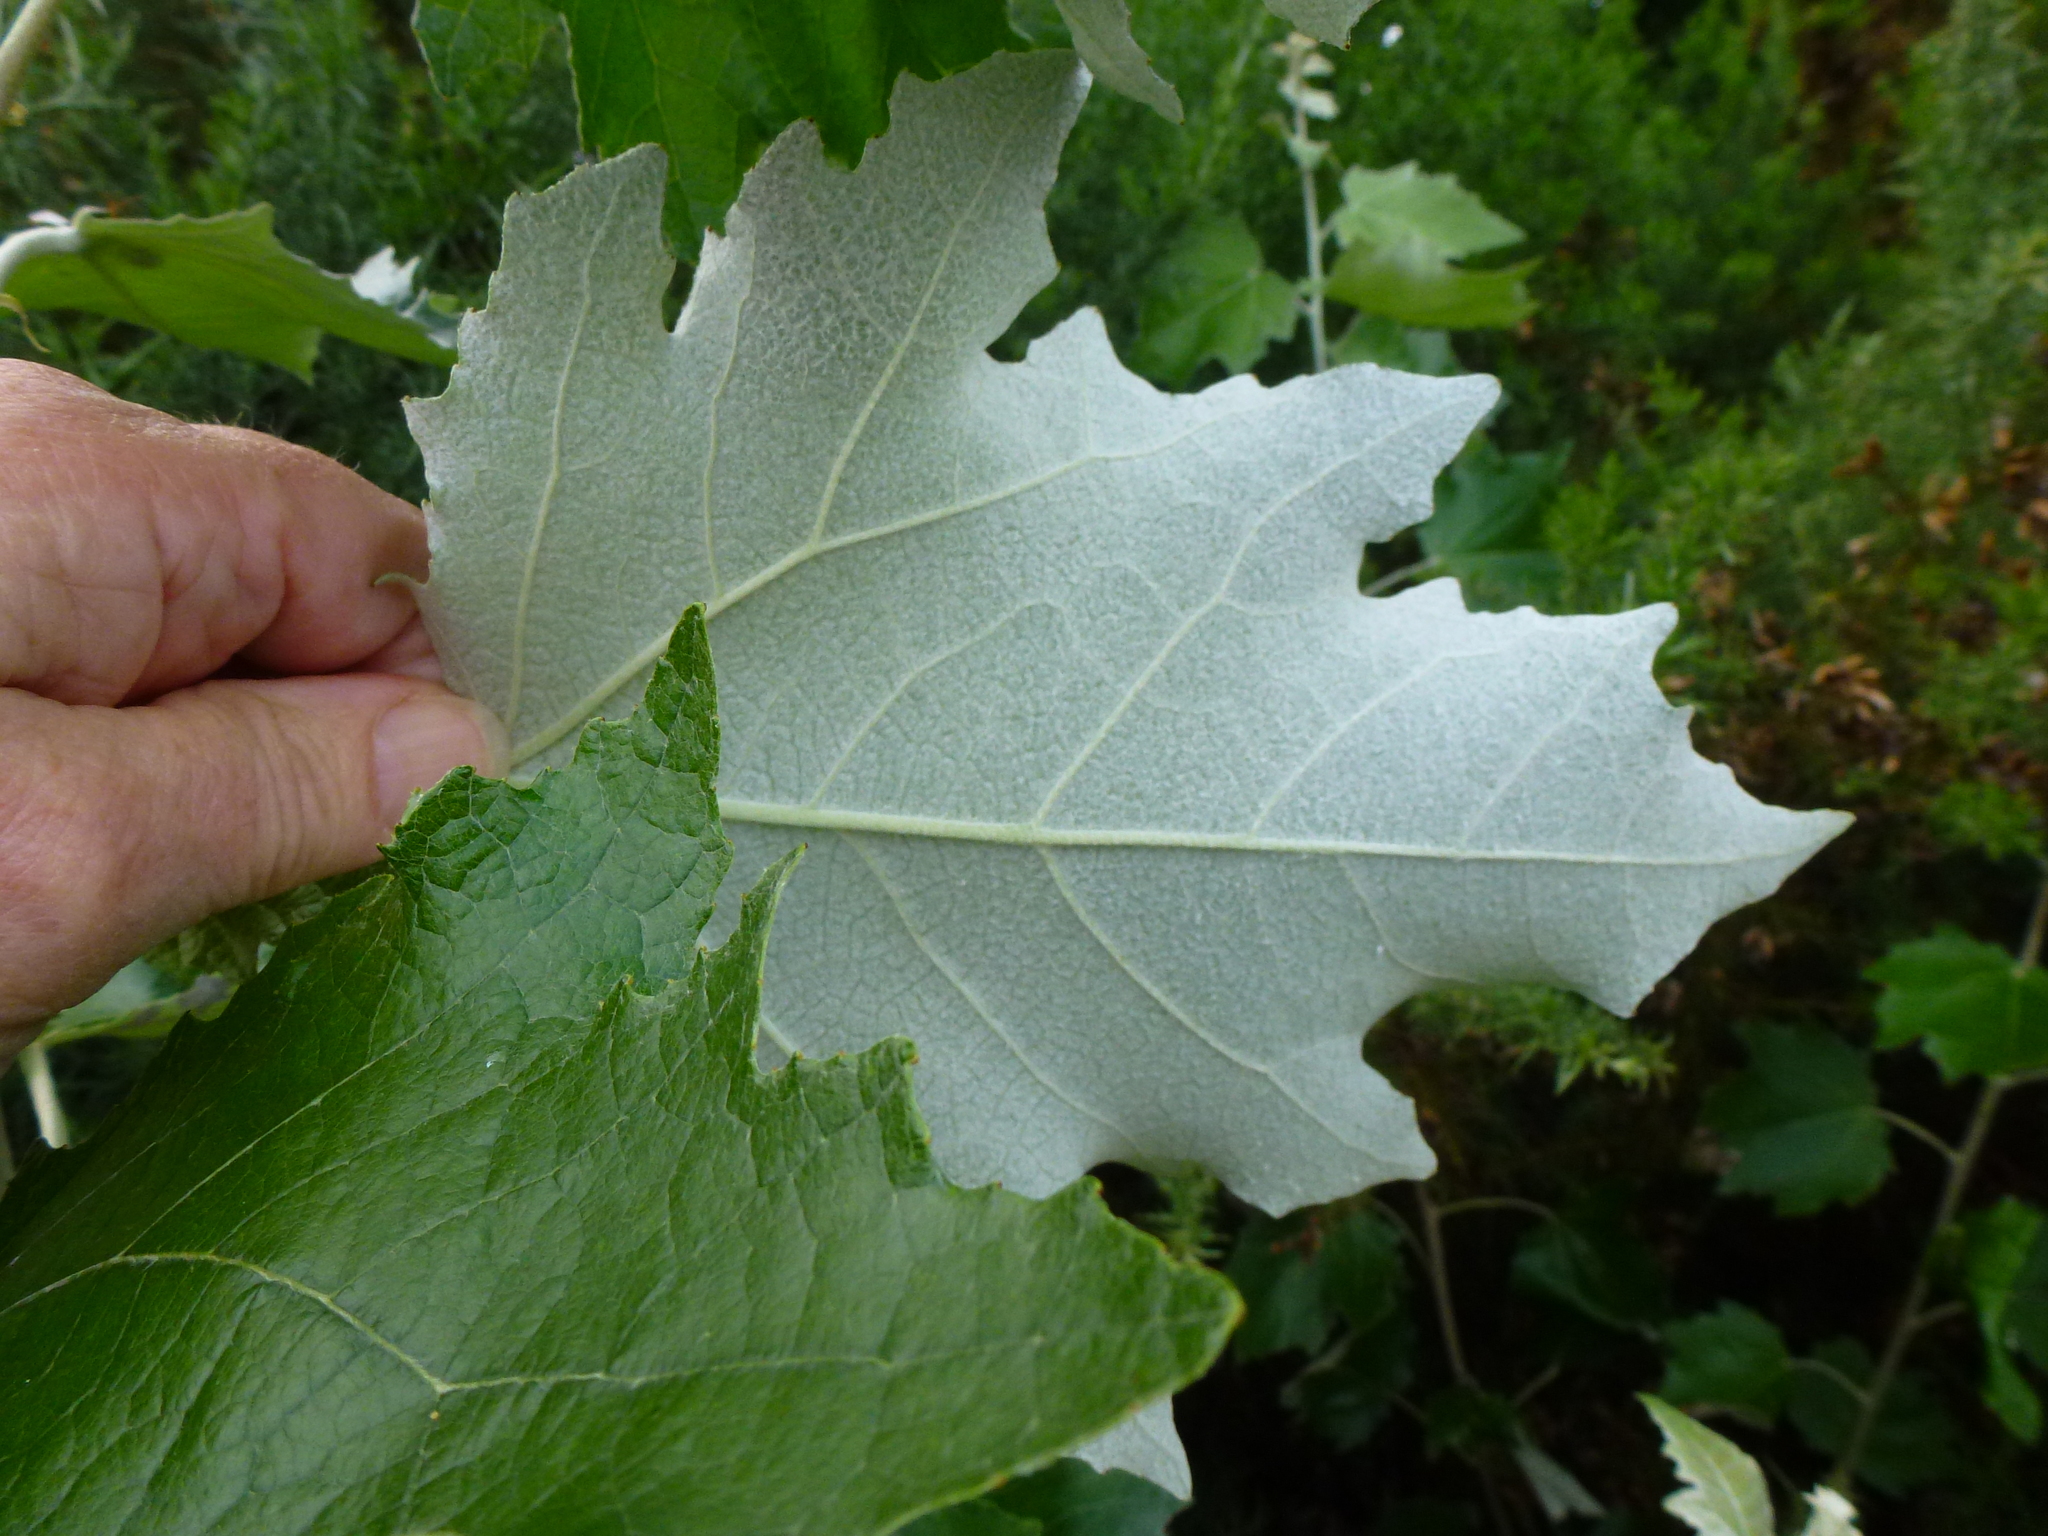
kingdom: Plantae
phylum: Tracheophyta
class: Magnoliopsida
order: Malpighiales
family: Salicaceae
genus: Populus
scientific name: Populus alba
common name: White poplar
